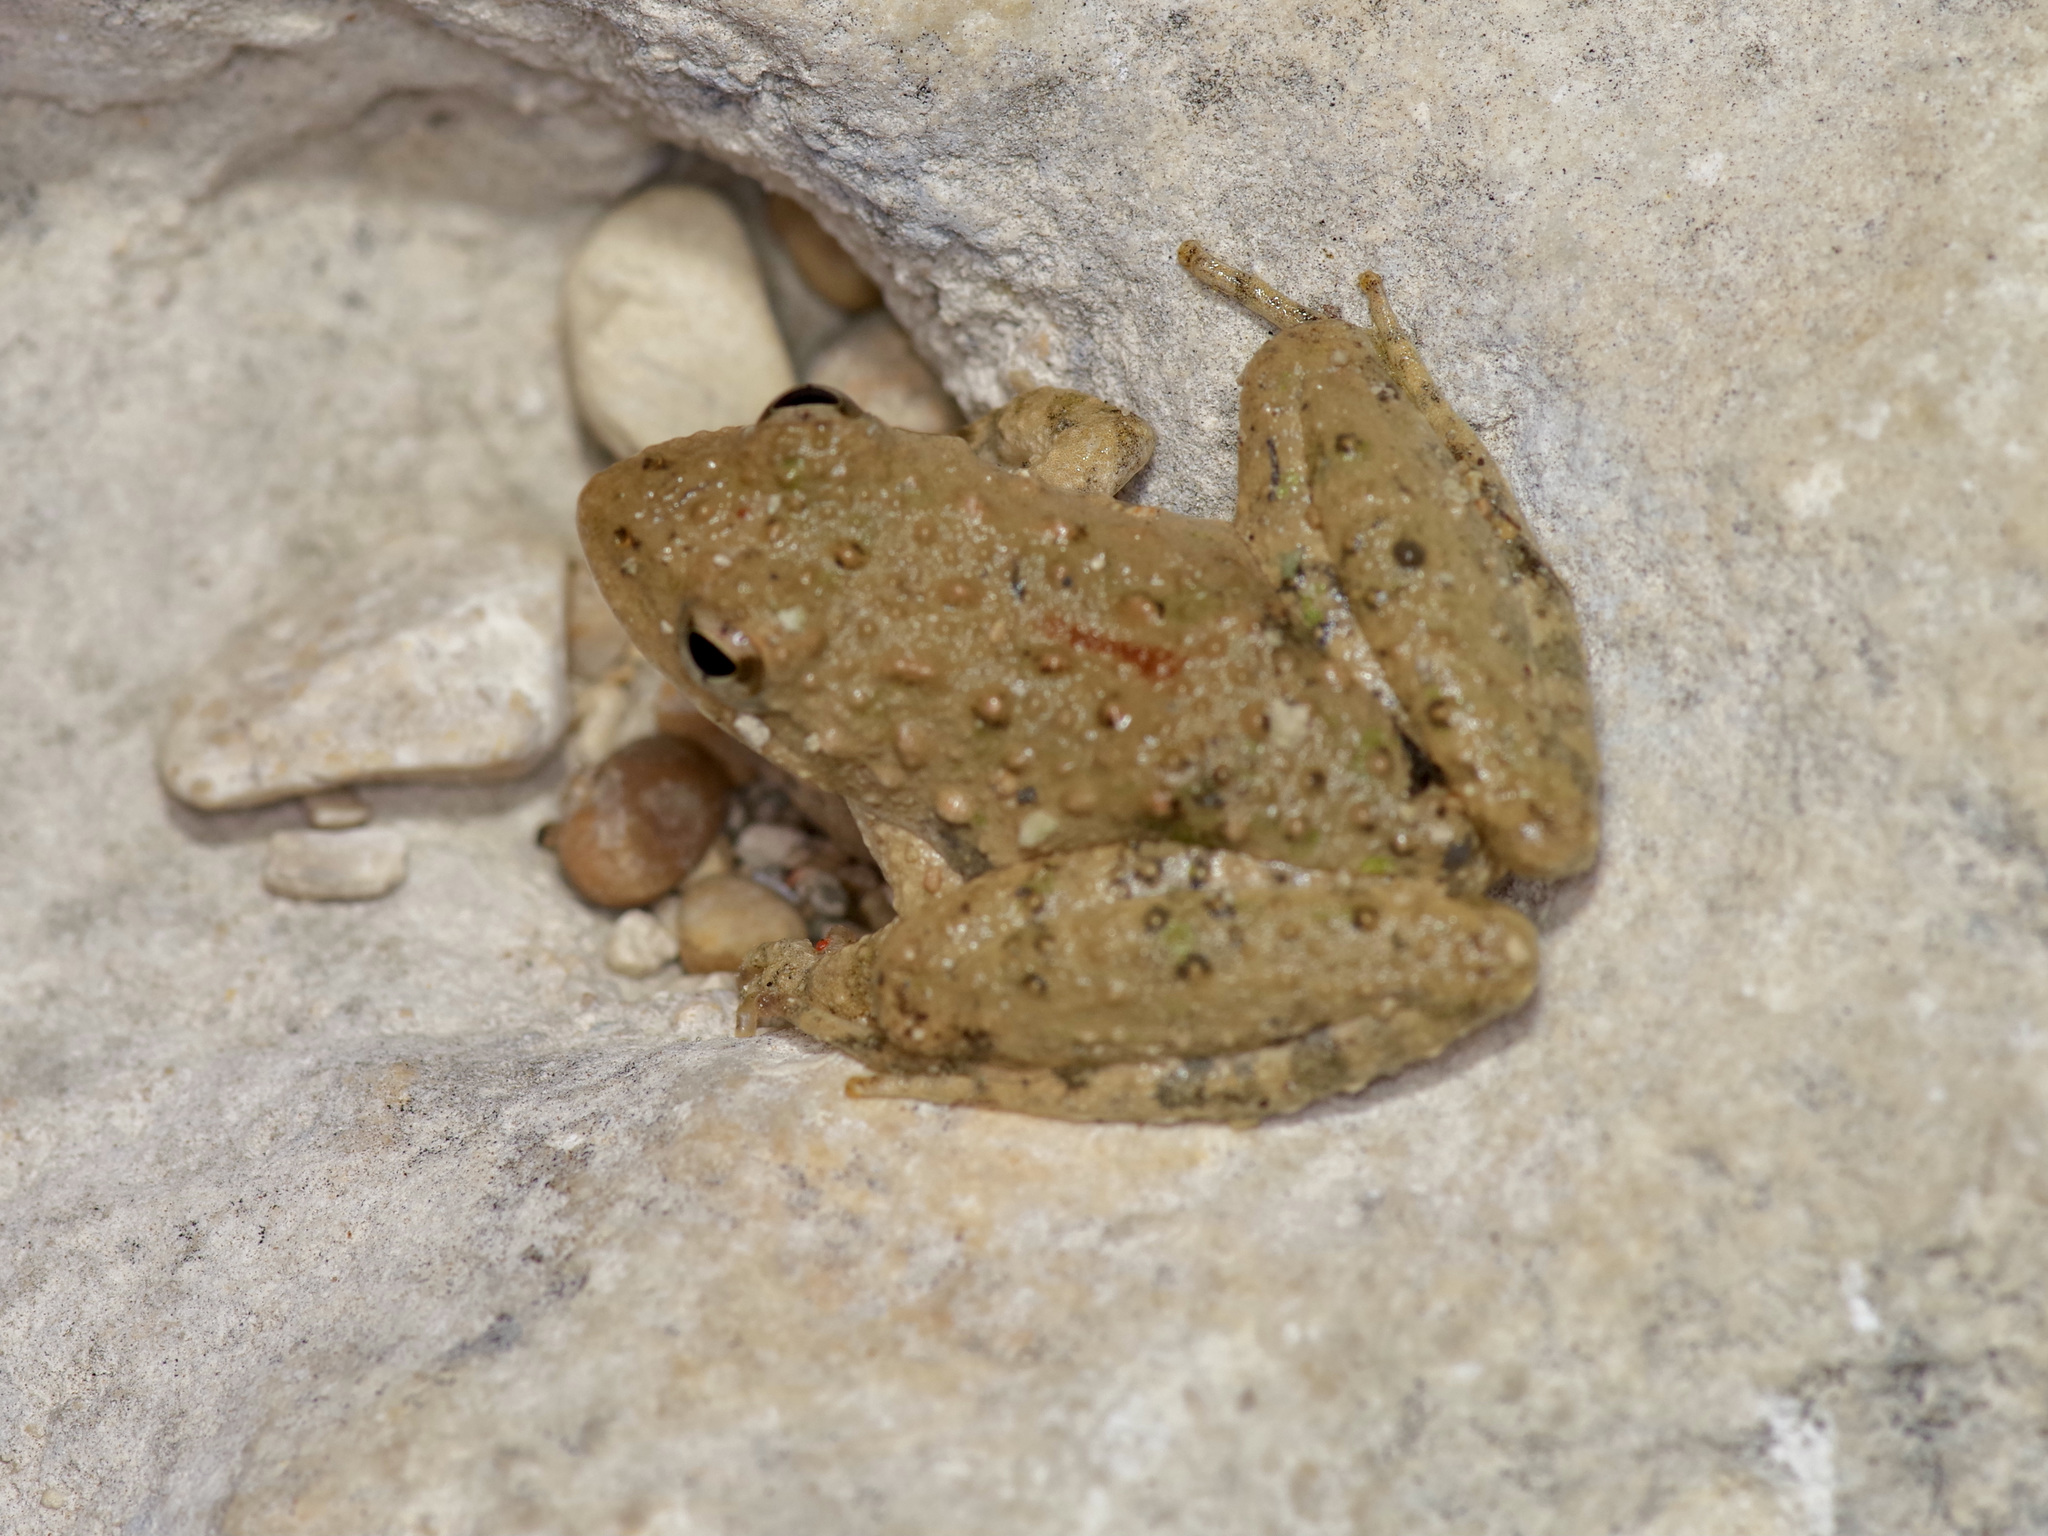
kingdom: Animalia
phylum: Chordata
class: Amphibia
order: Anura
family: Hylidae
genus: Acris
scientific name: Acris blanchardi
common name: Blanchard's cricket frog
